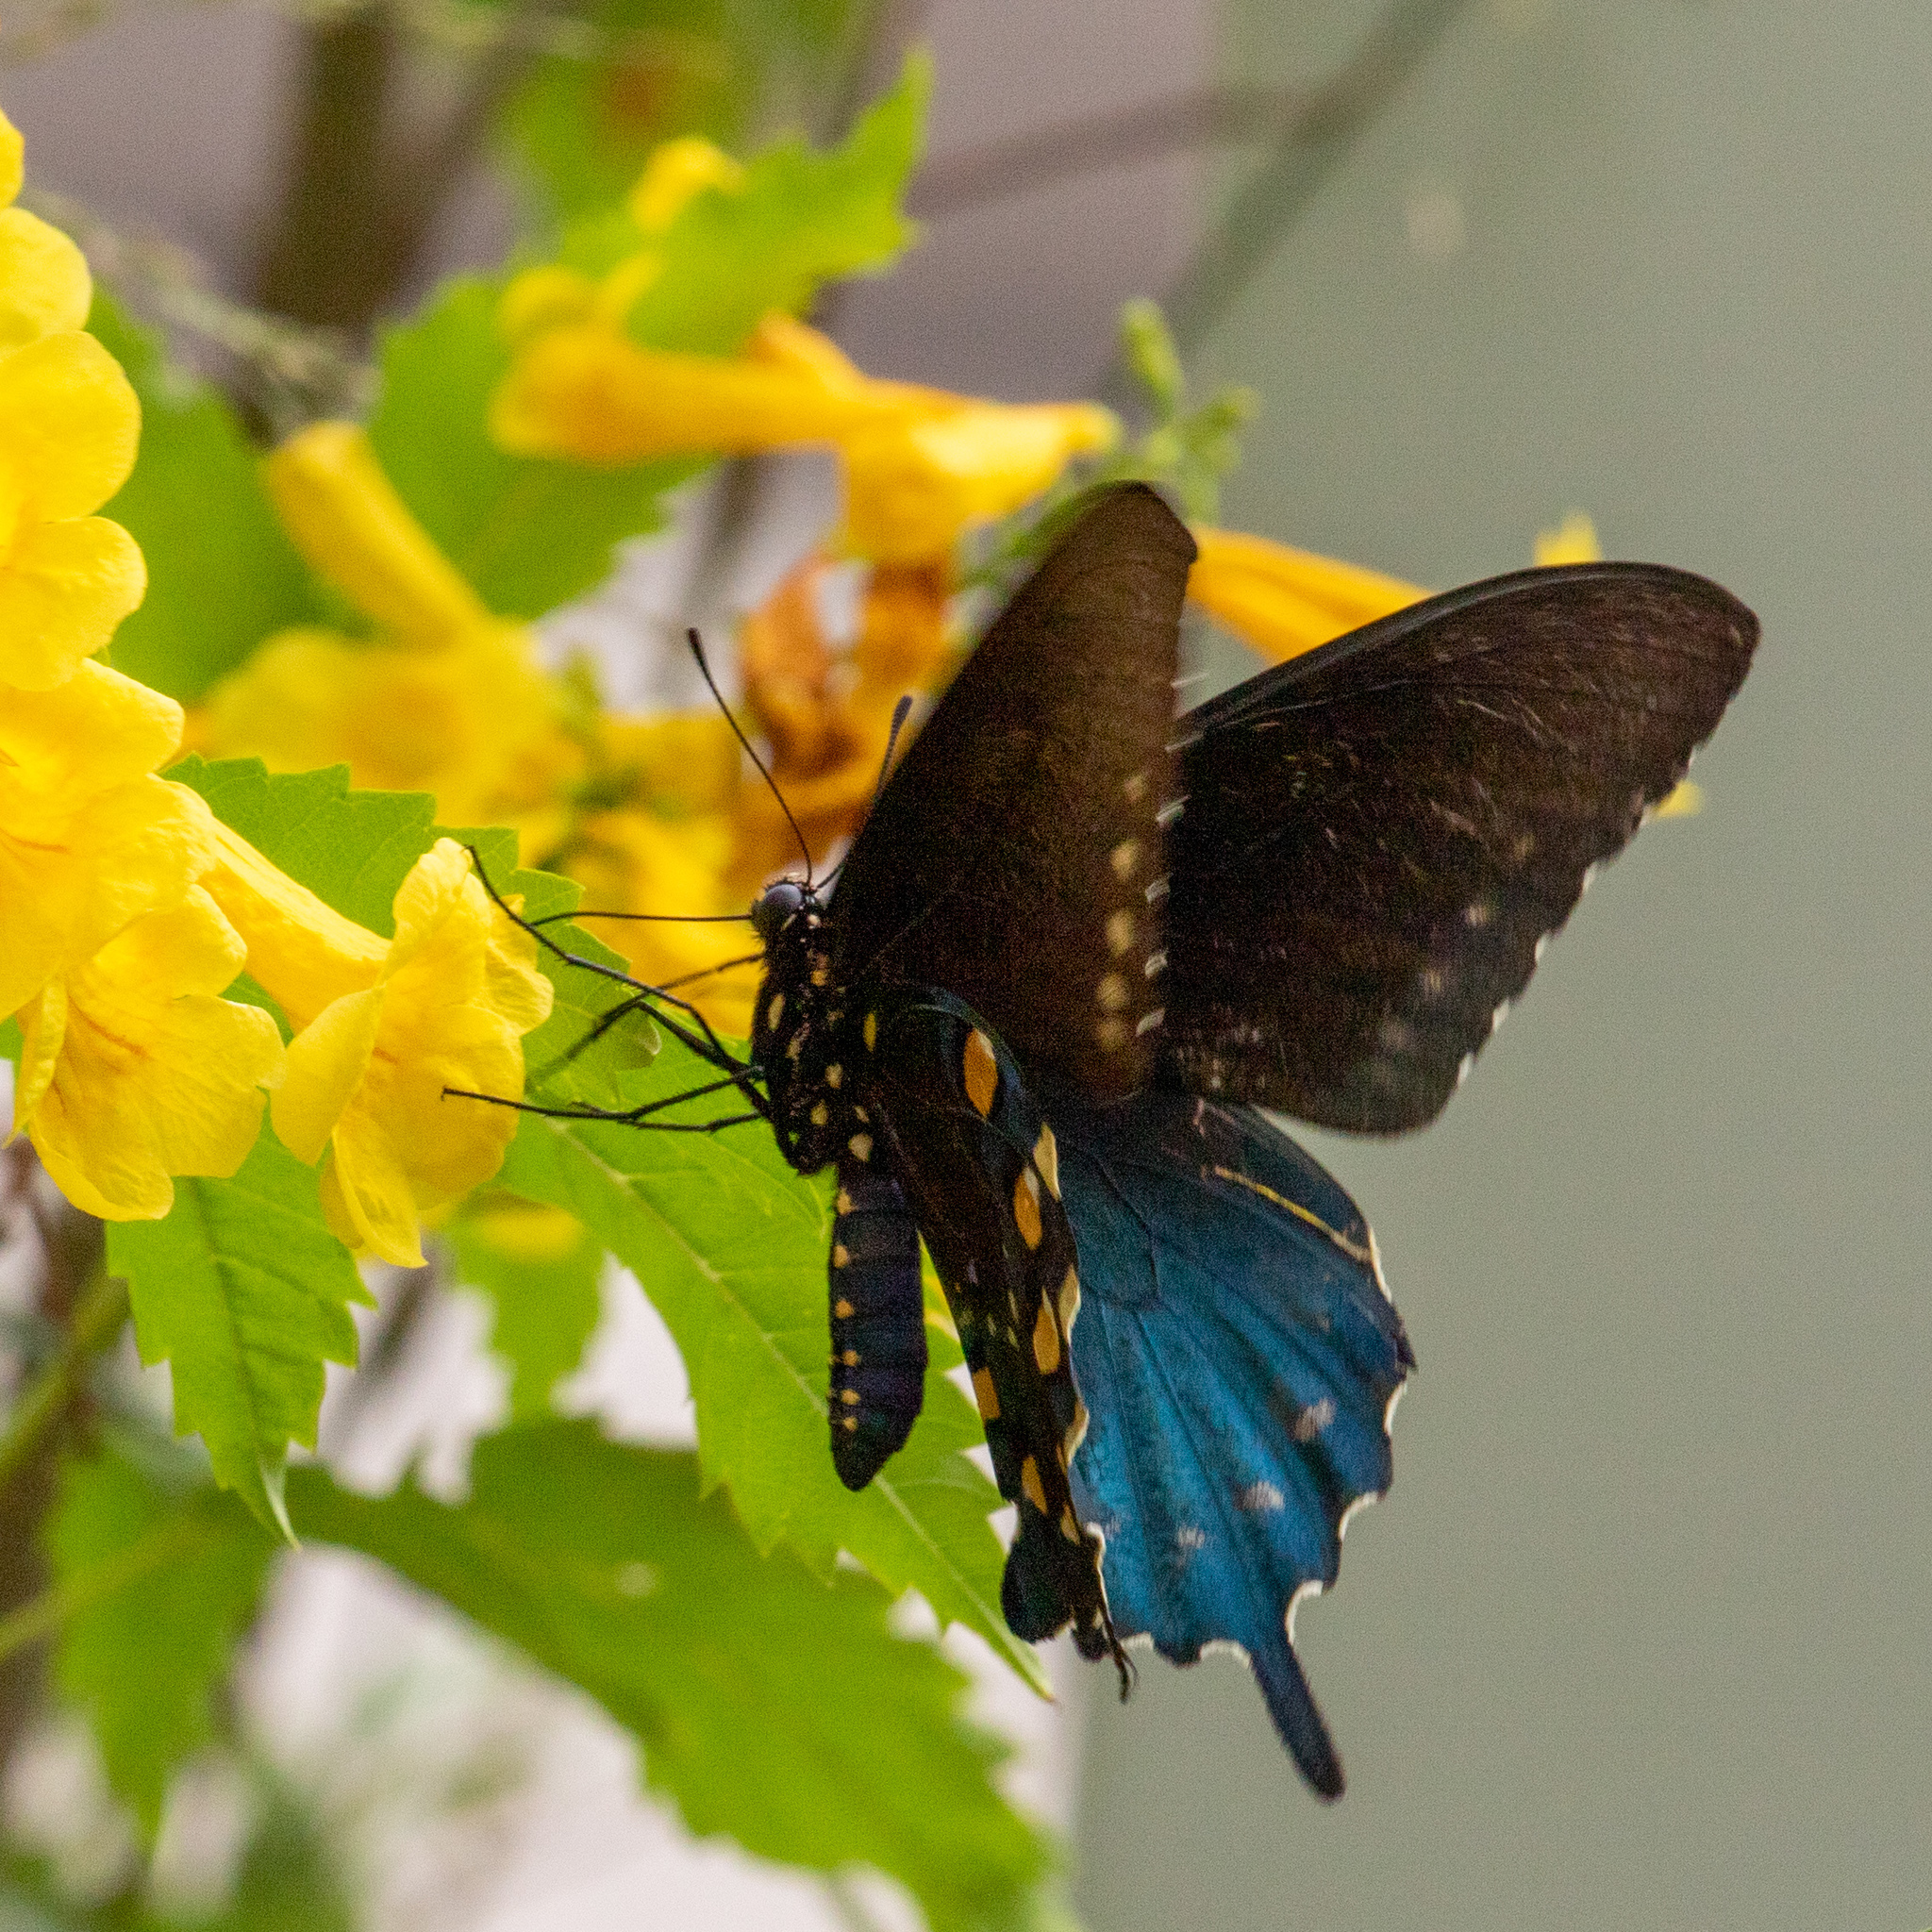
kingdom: Animalia
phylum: Arthropoda
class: Insecta
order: Lepidoptera
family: Papilionidae
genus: Battus
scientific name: Battus philenor
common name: Pipevine swallowtail
